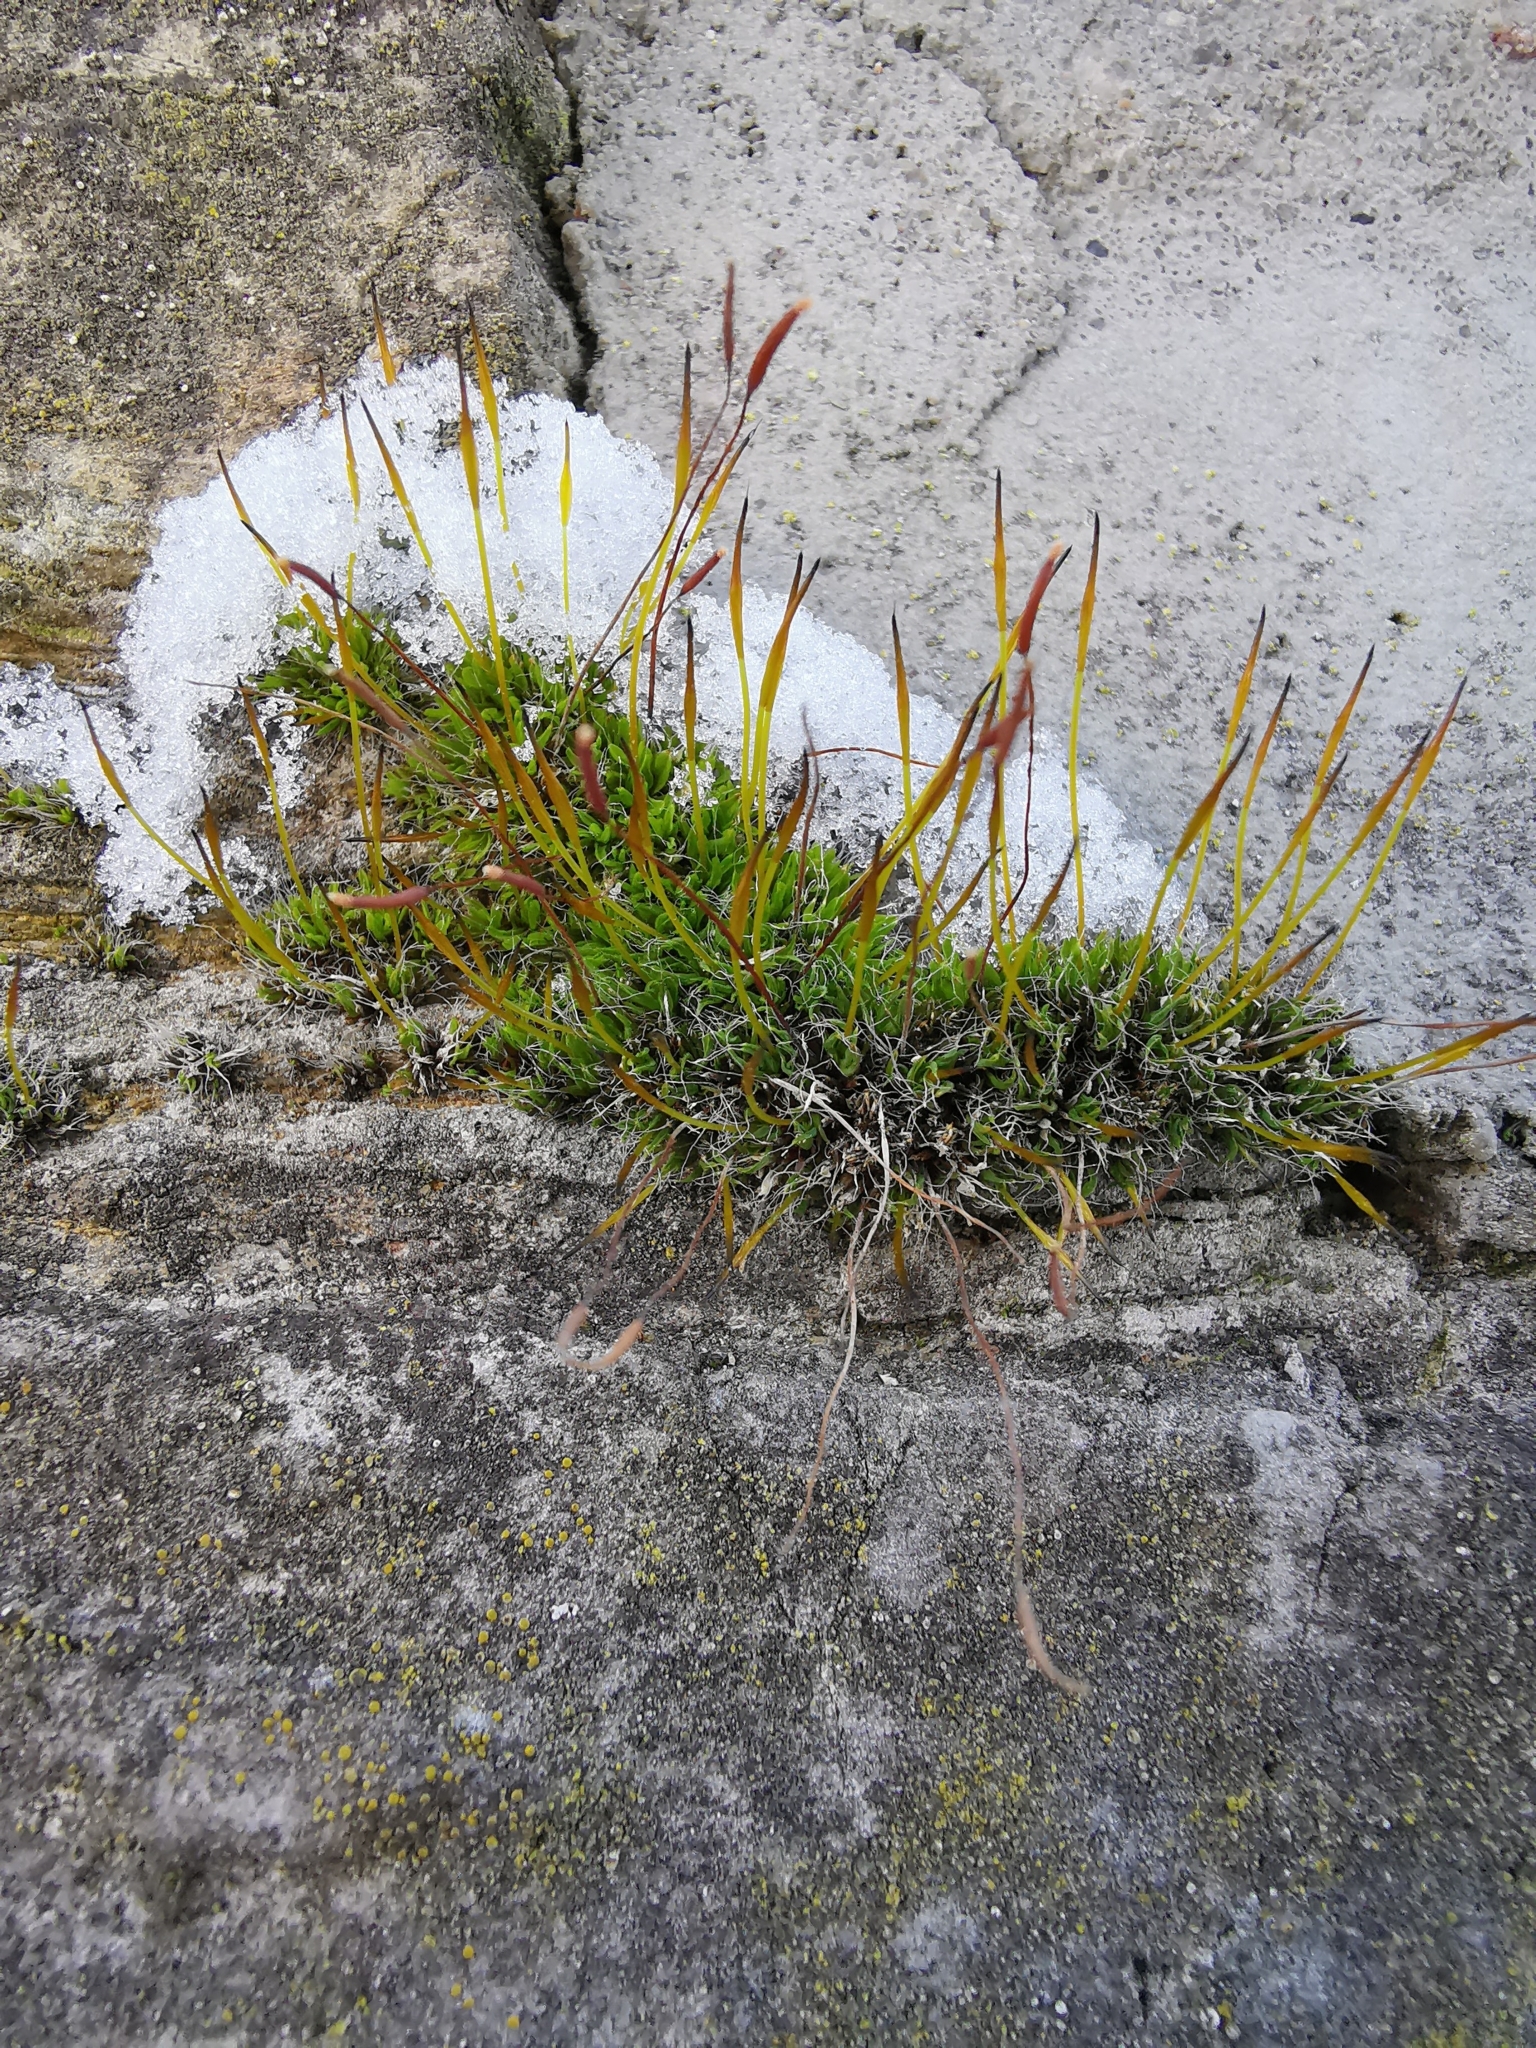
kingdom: Plantae
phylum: Bryophyta
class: Bryopsida
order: Pottiales
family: Pottiaceae
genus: Tortula
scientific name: Tortula muralis
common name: Wall screw-moss
